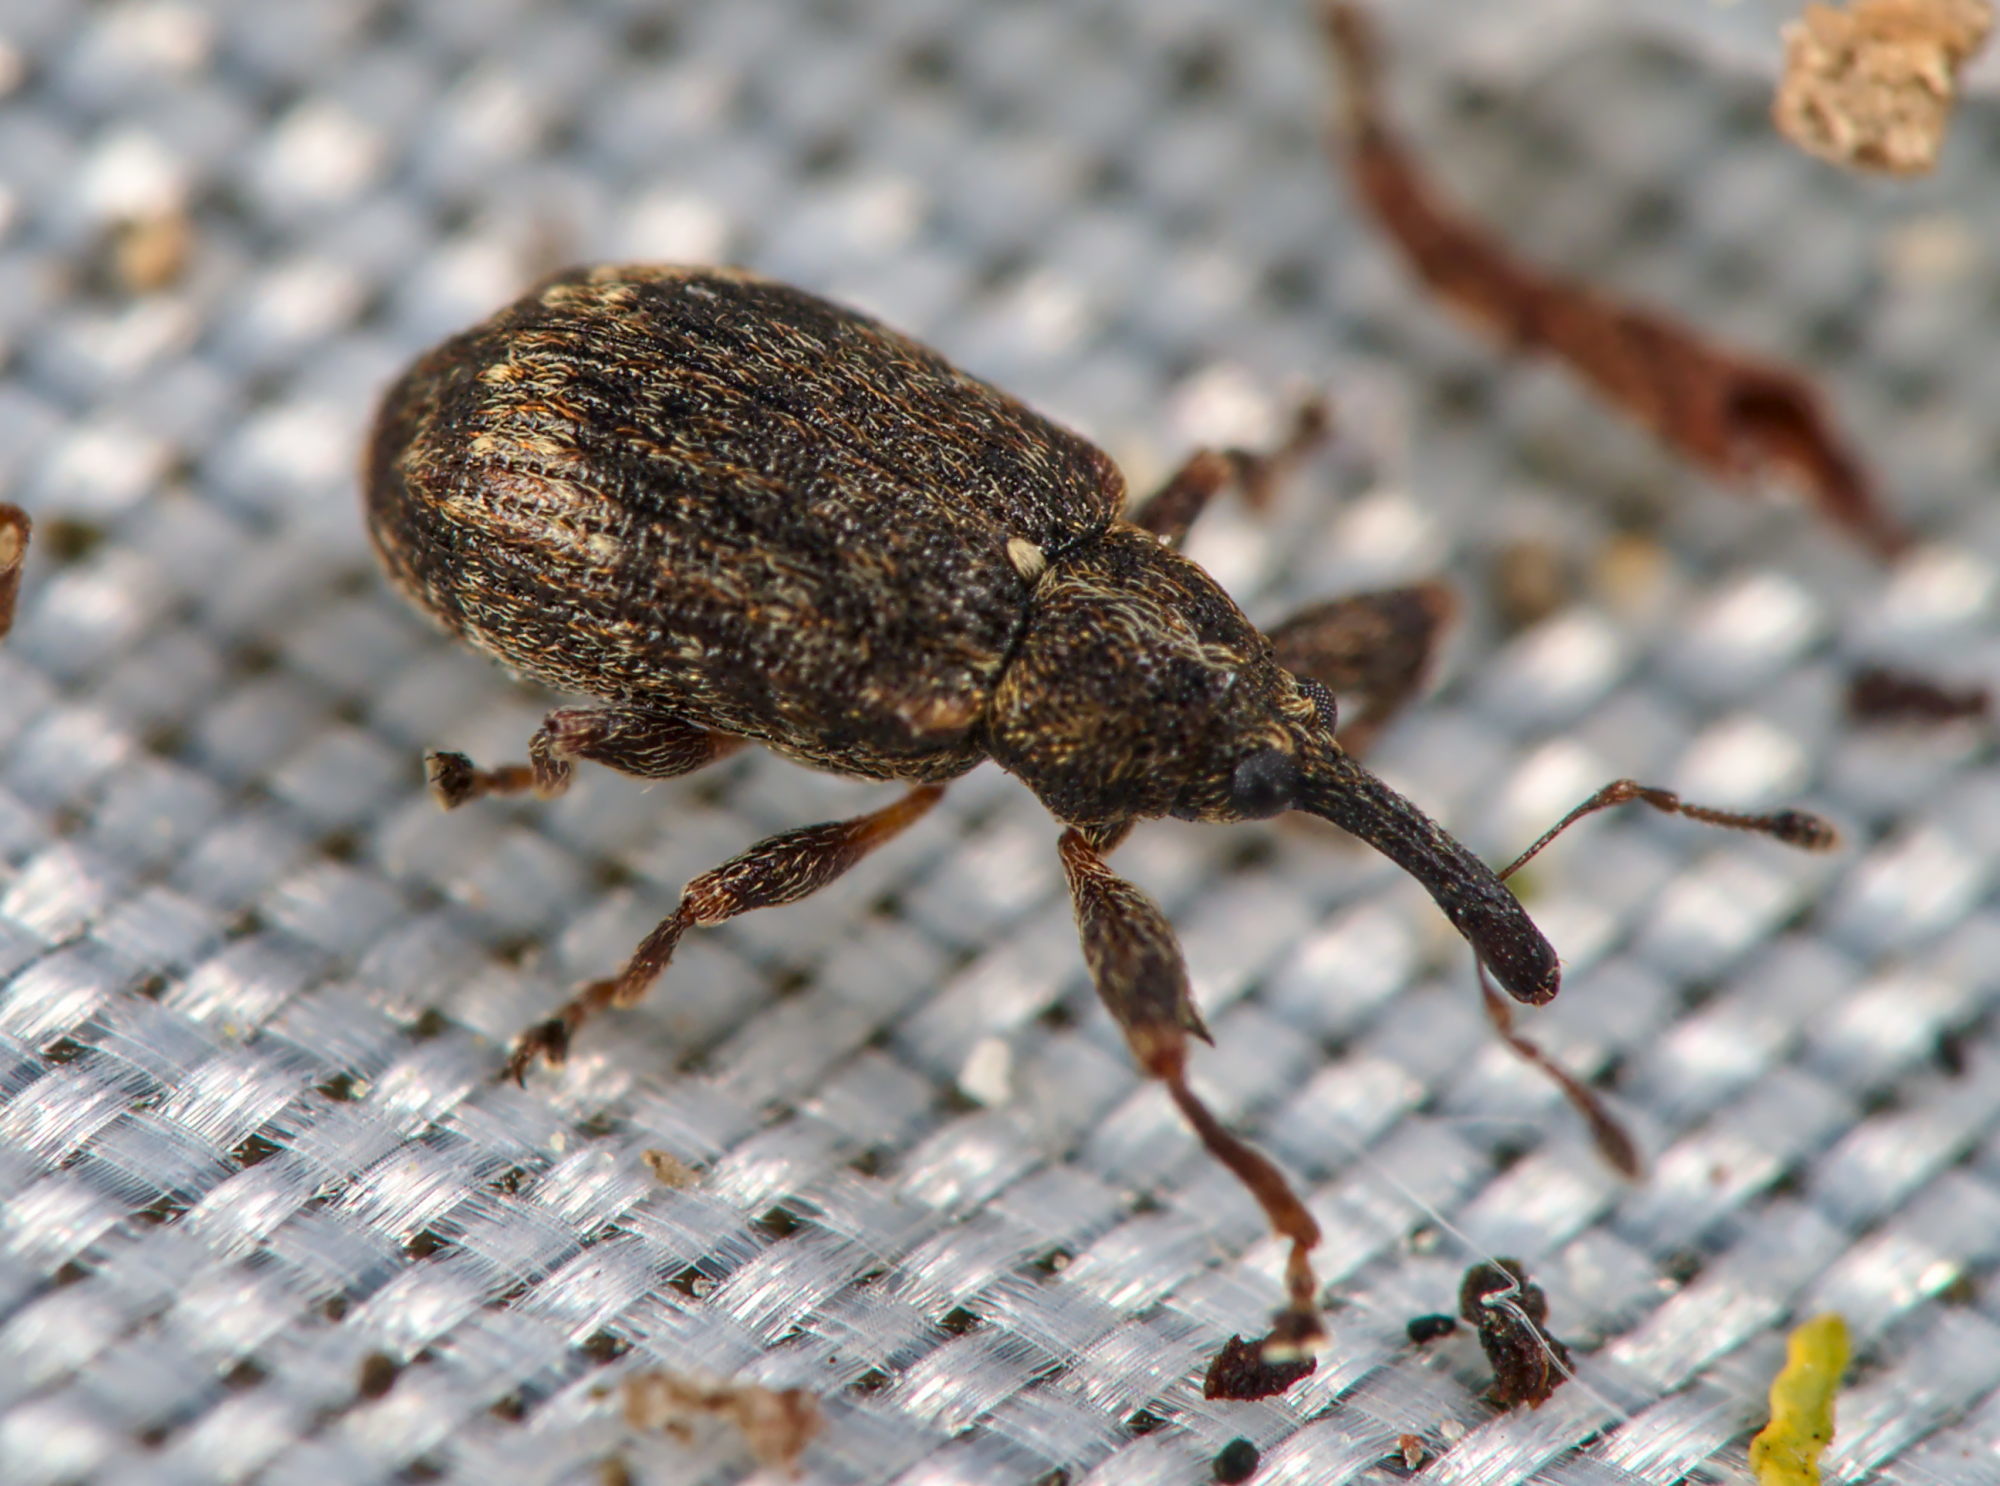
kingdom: Animalia
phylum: Arthropoda
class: Insecta
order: Coleoptera
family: Curculionidae
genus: Anthonomus
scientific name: Anthonomus pomorum
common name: Apple-blossom weevil
